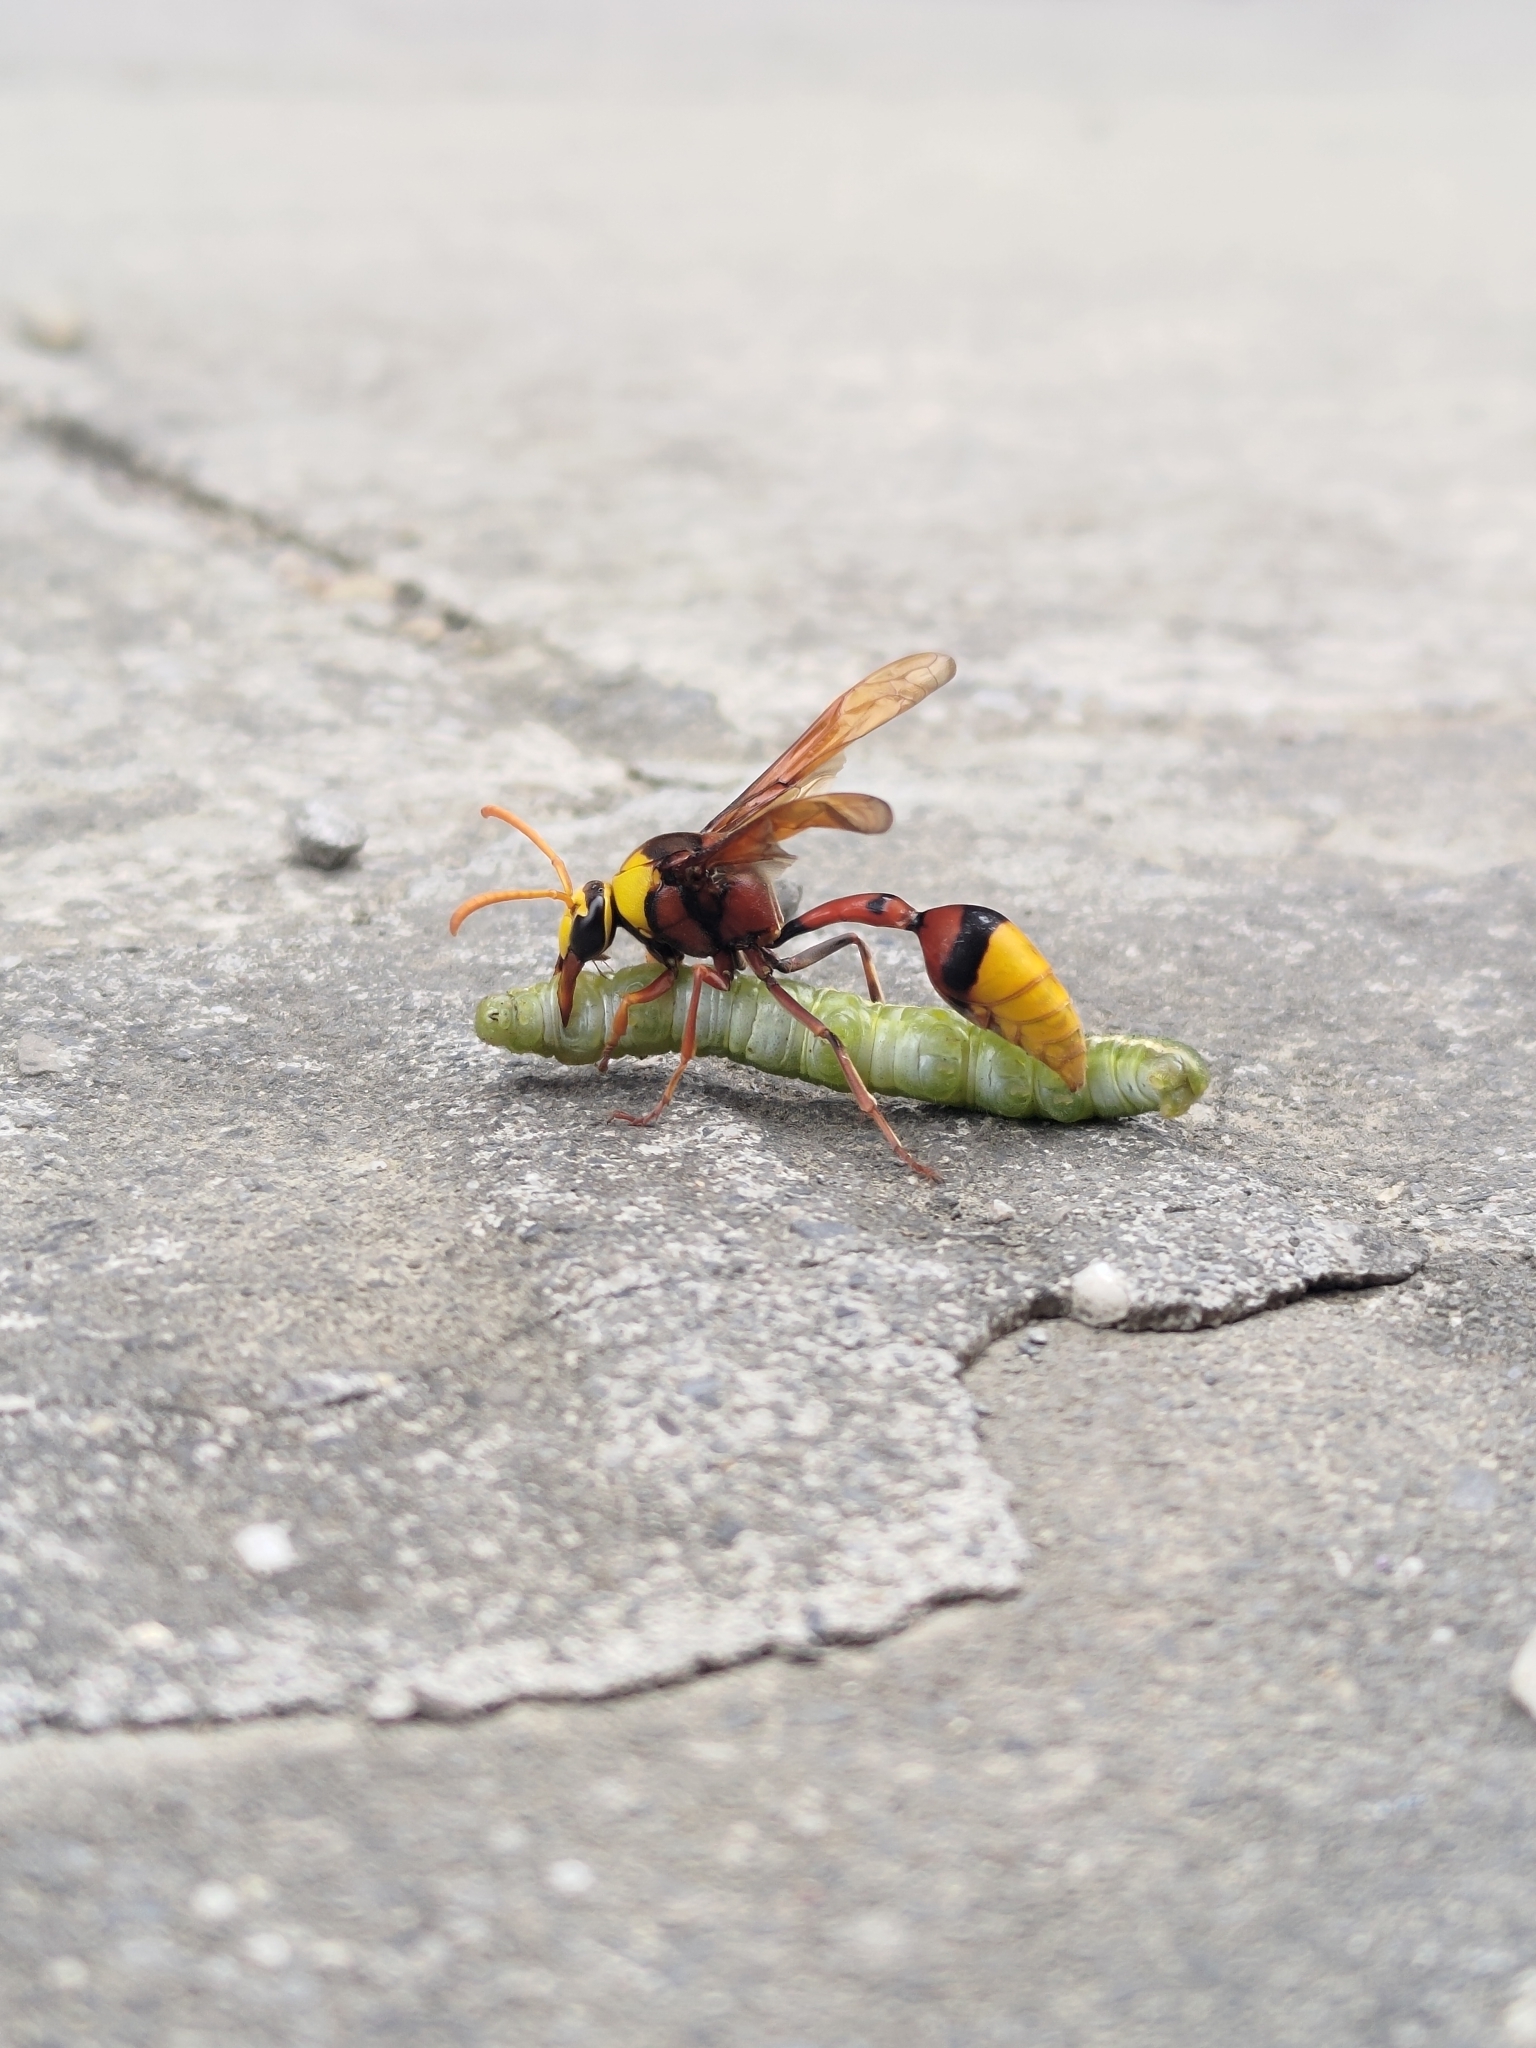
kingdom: Animalia
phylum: Arthropoda
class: Insecta
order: Hymenoptera
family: Eumenidae
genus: Delta
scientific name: Delta pyriforme
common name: Wasp
